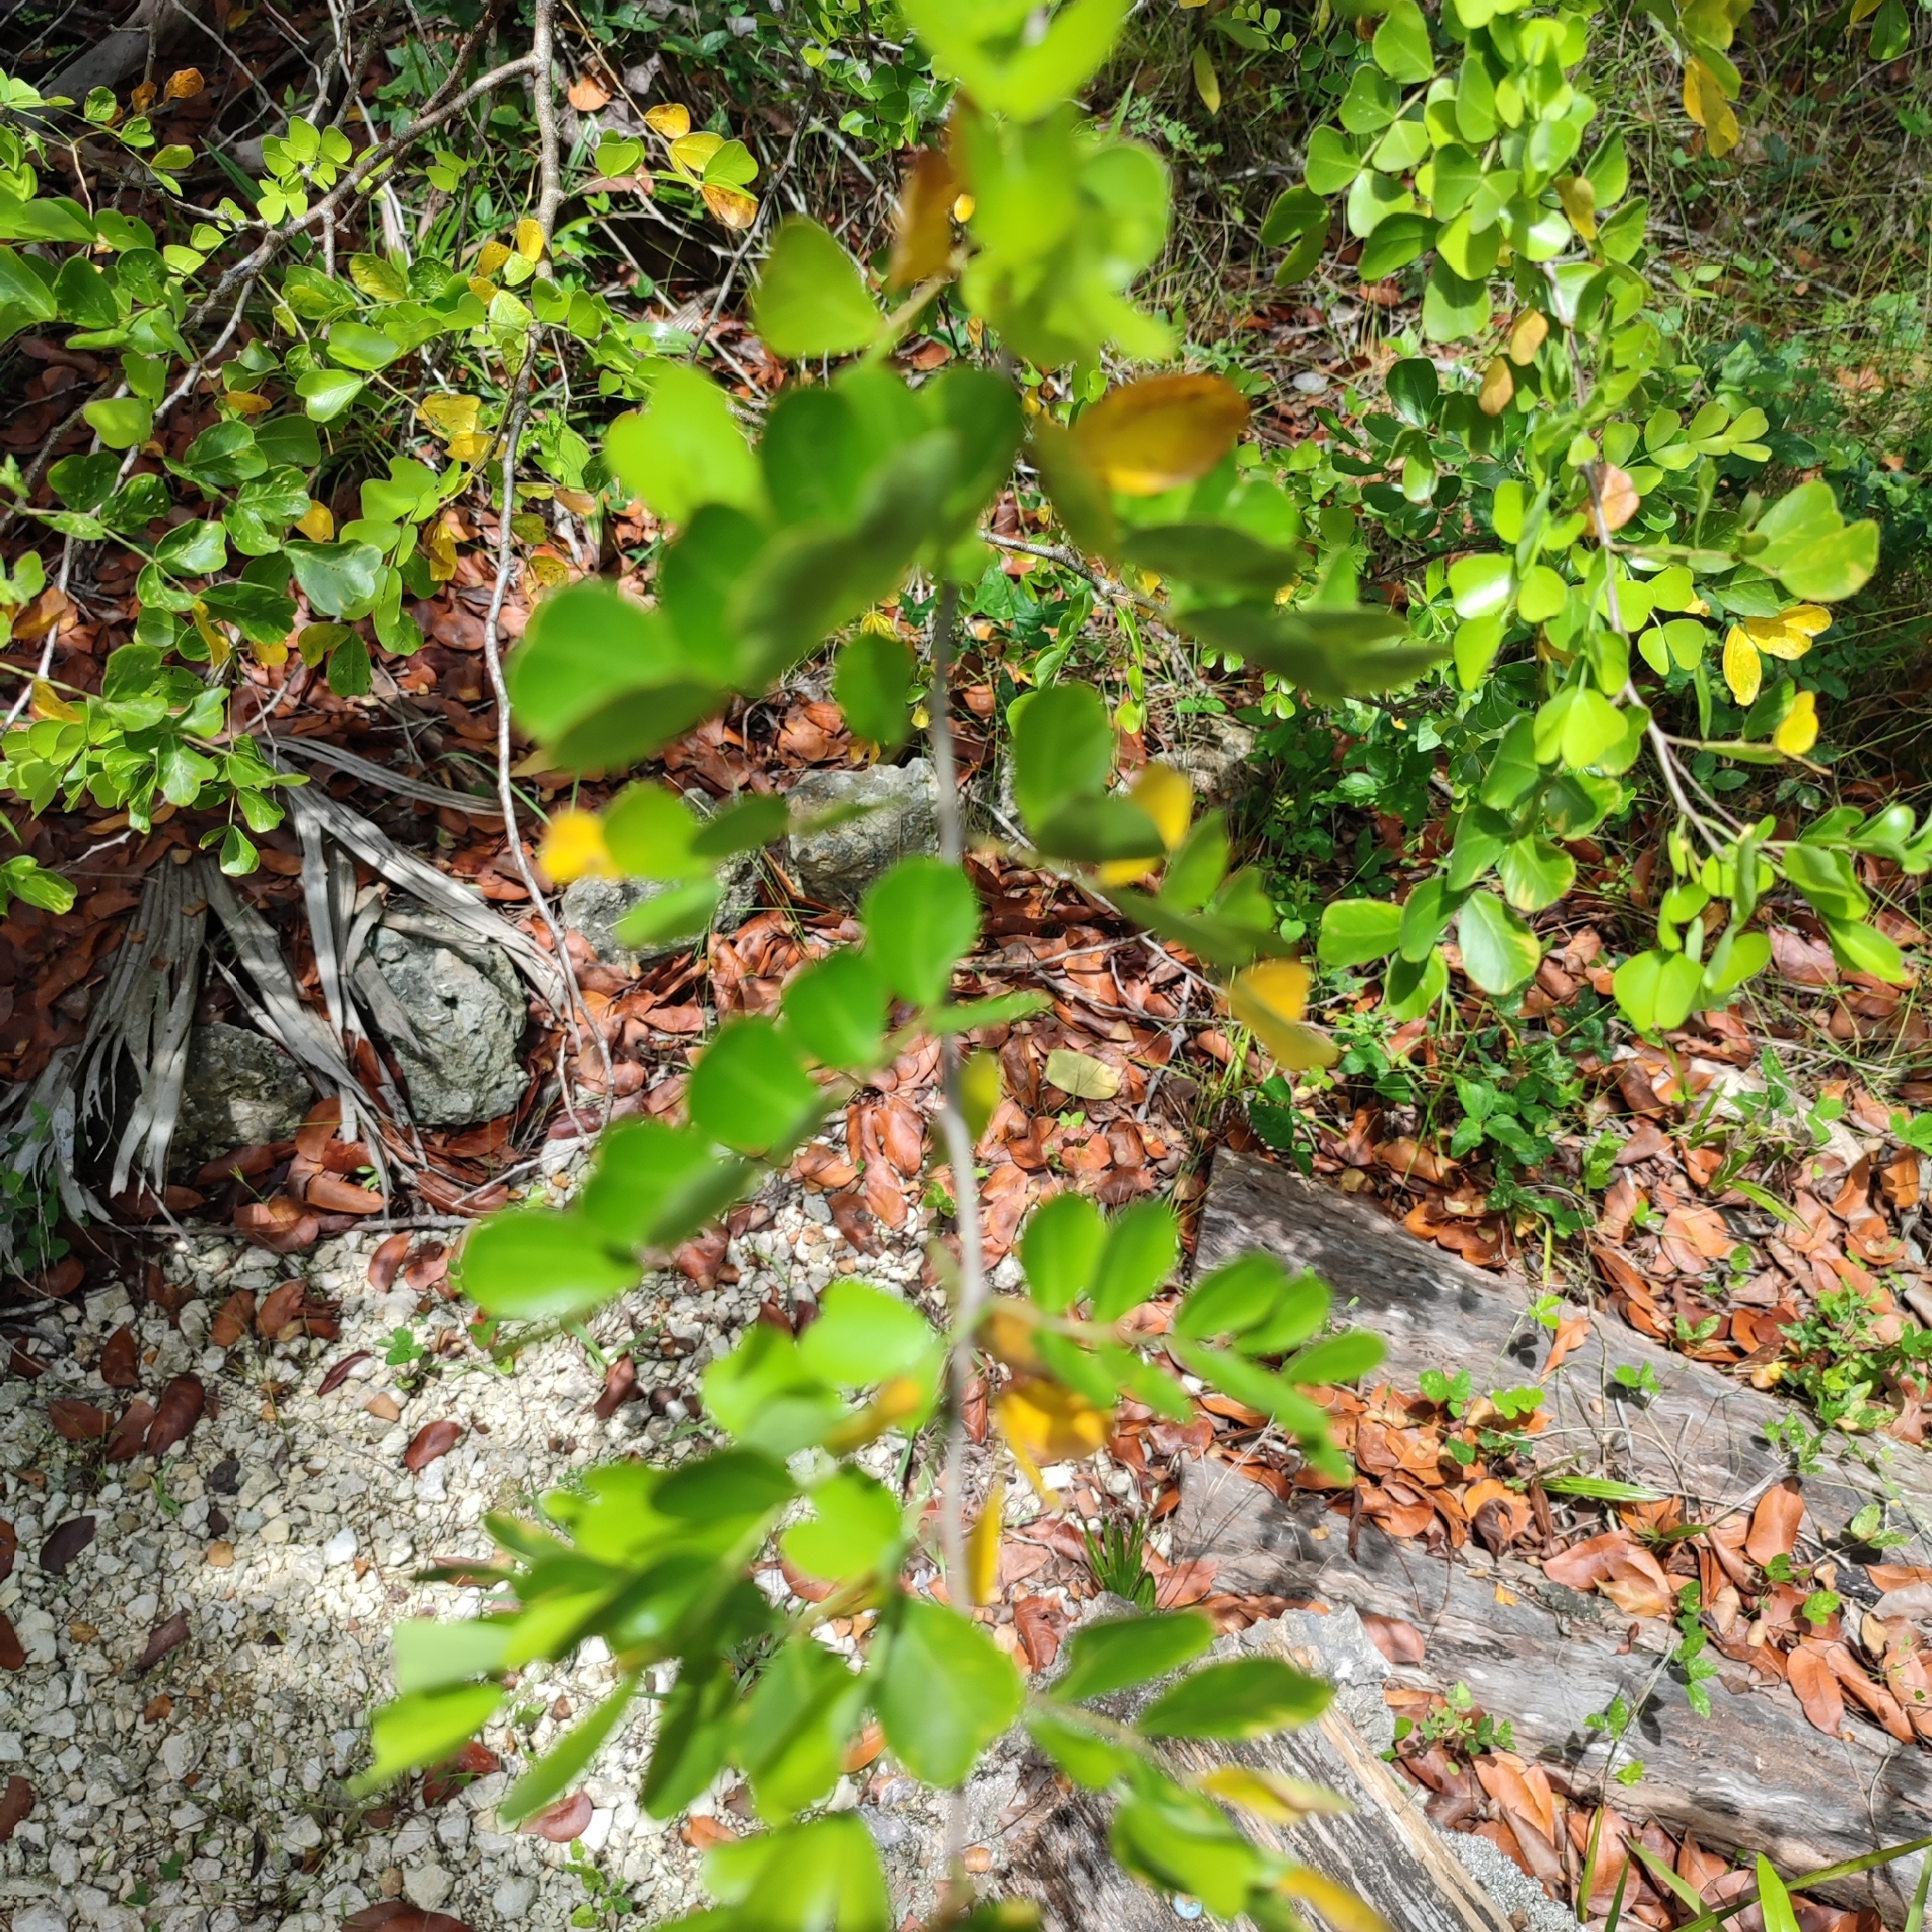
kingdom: Plantae
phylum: Tracheophyta
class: Magnoliopsida
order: Fabales
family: Fabaceae
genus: Haematoxylum
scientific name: Haematoxylum campechianum
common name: Logwood
